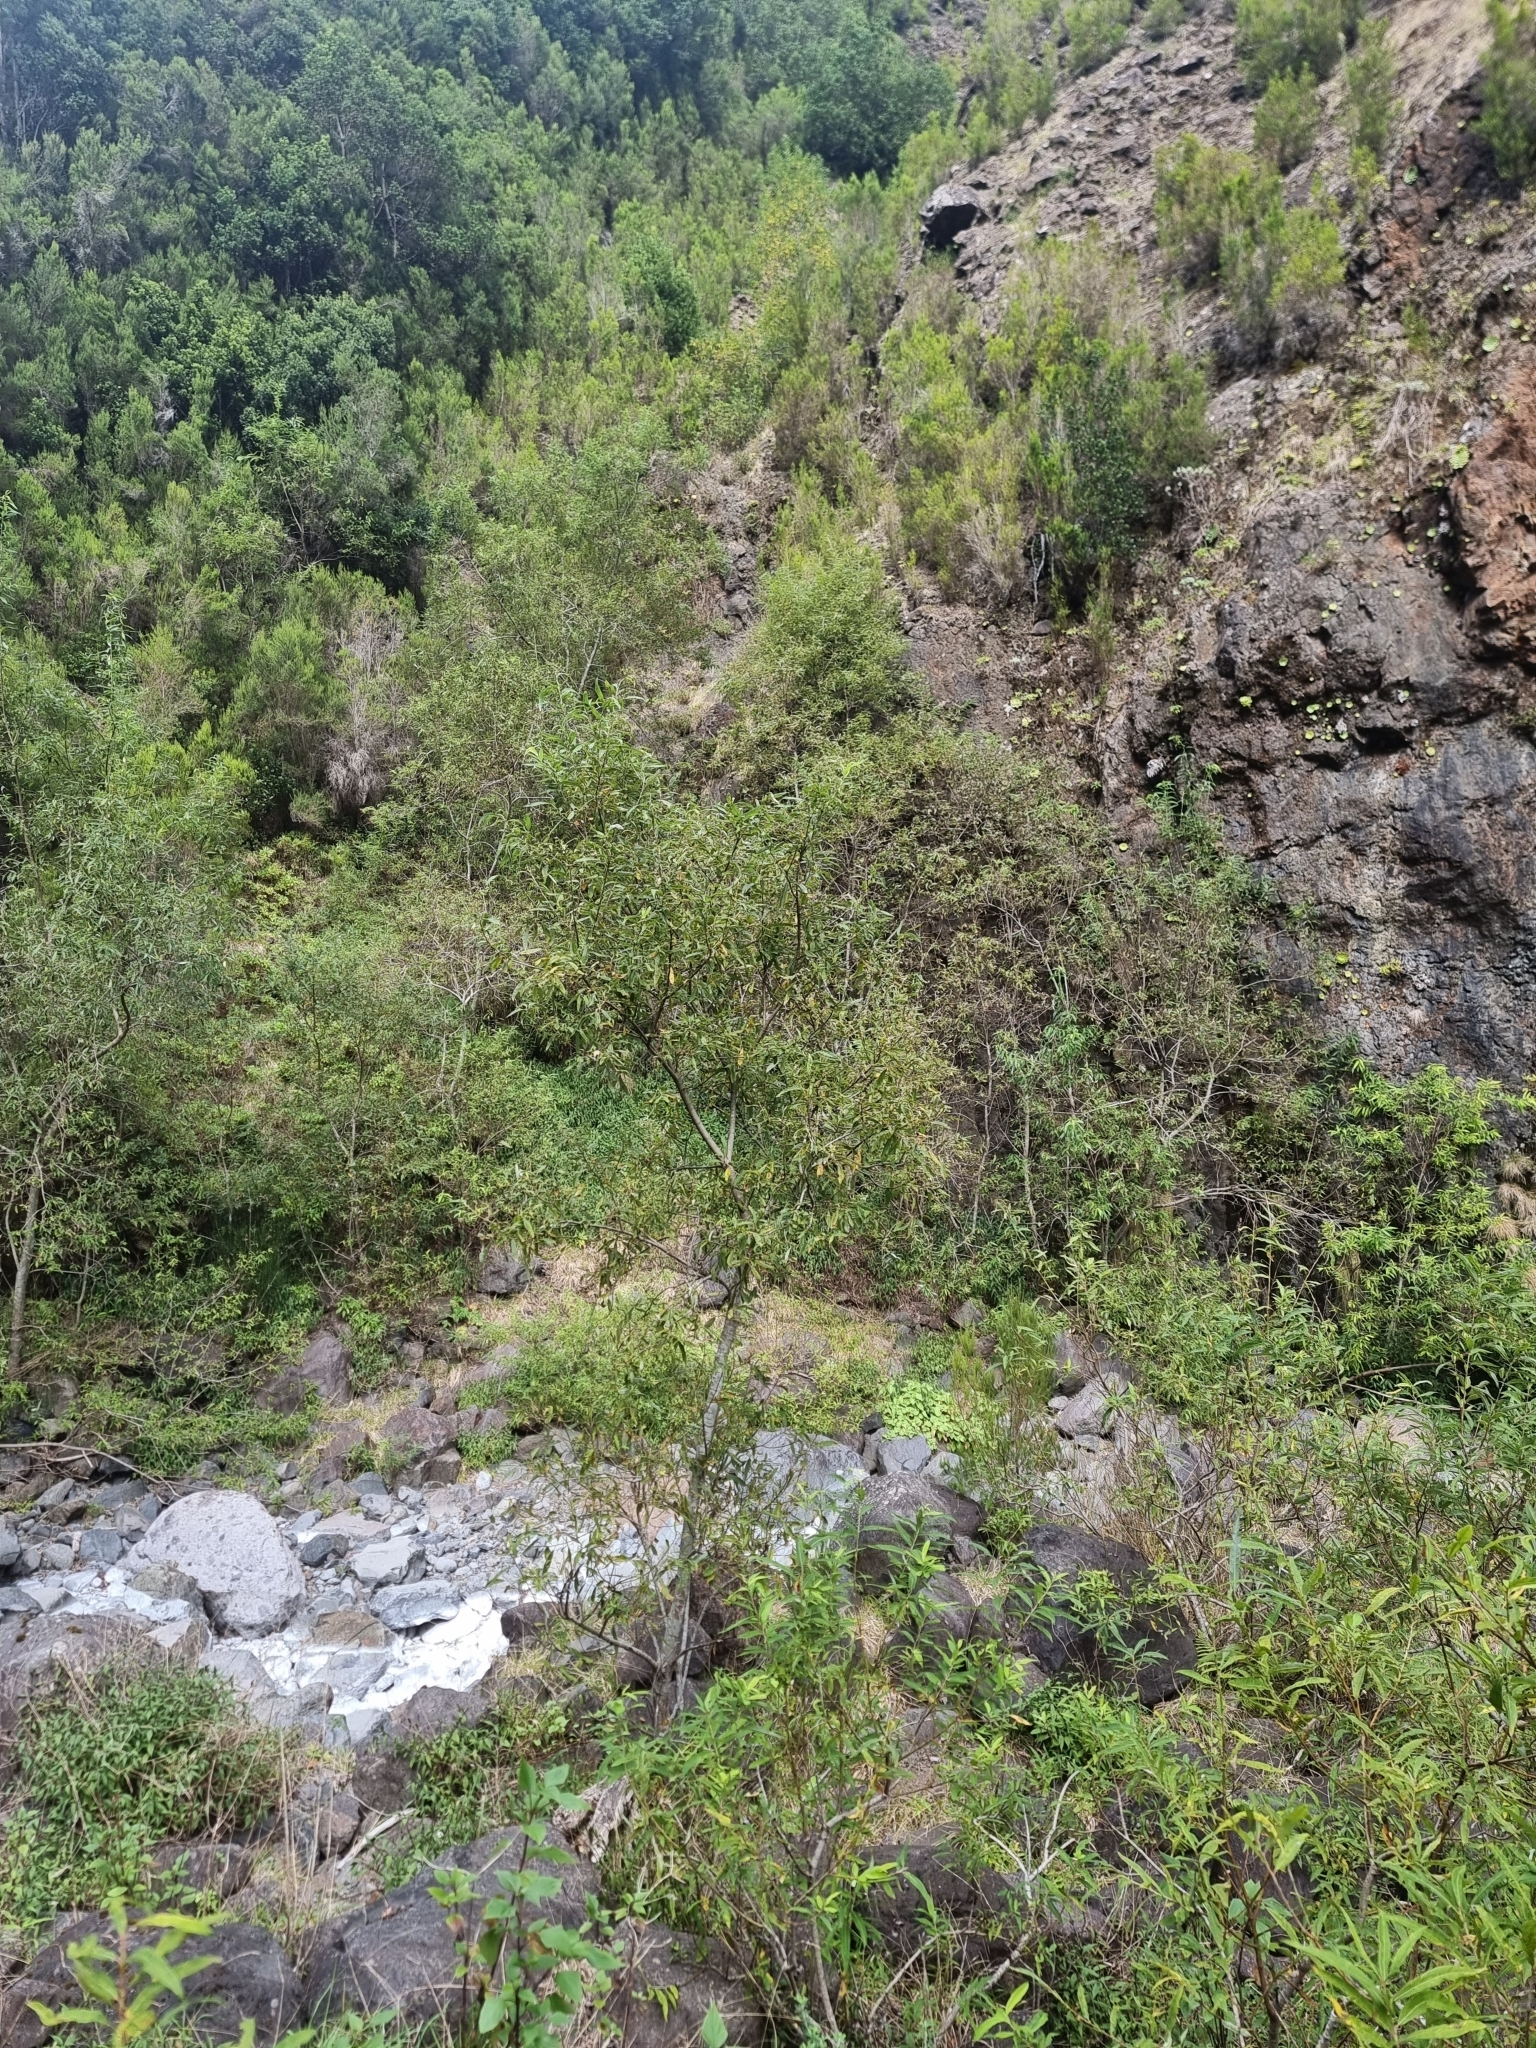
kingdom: Plantae
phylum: Tracheophyta
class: Magnoliopsida
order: Malpighiales
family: Salicaceae
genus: Salix
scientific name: Salix canariensis
